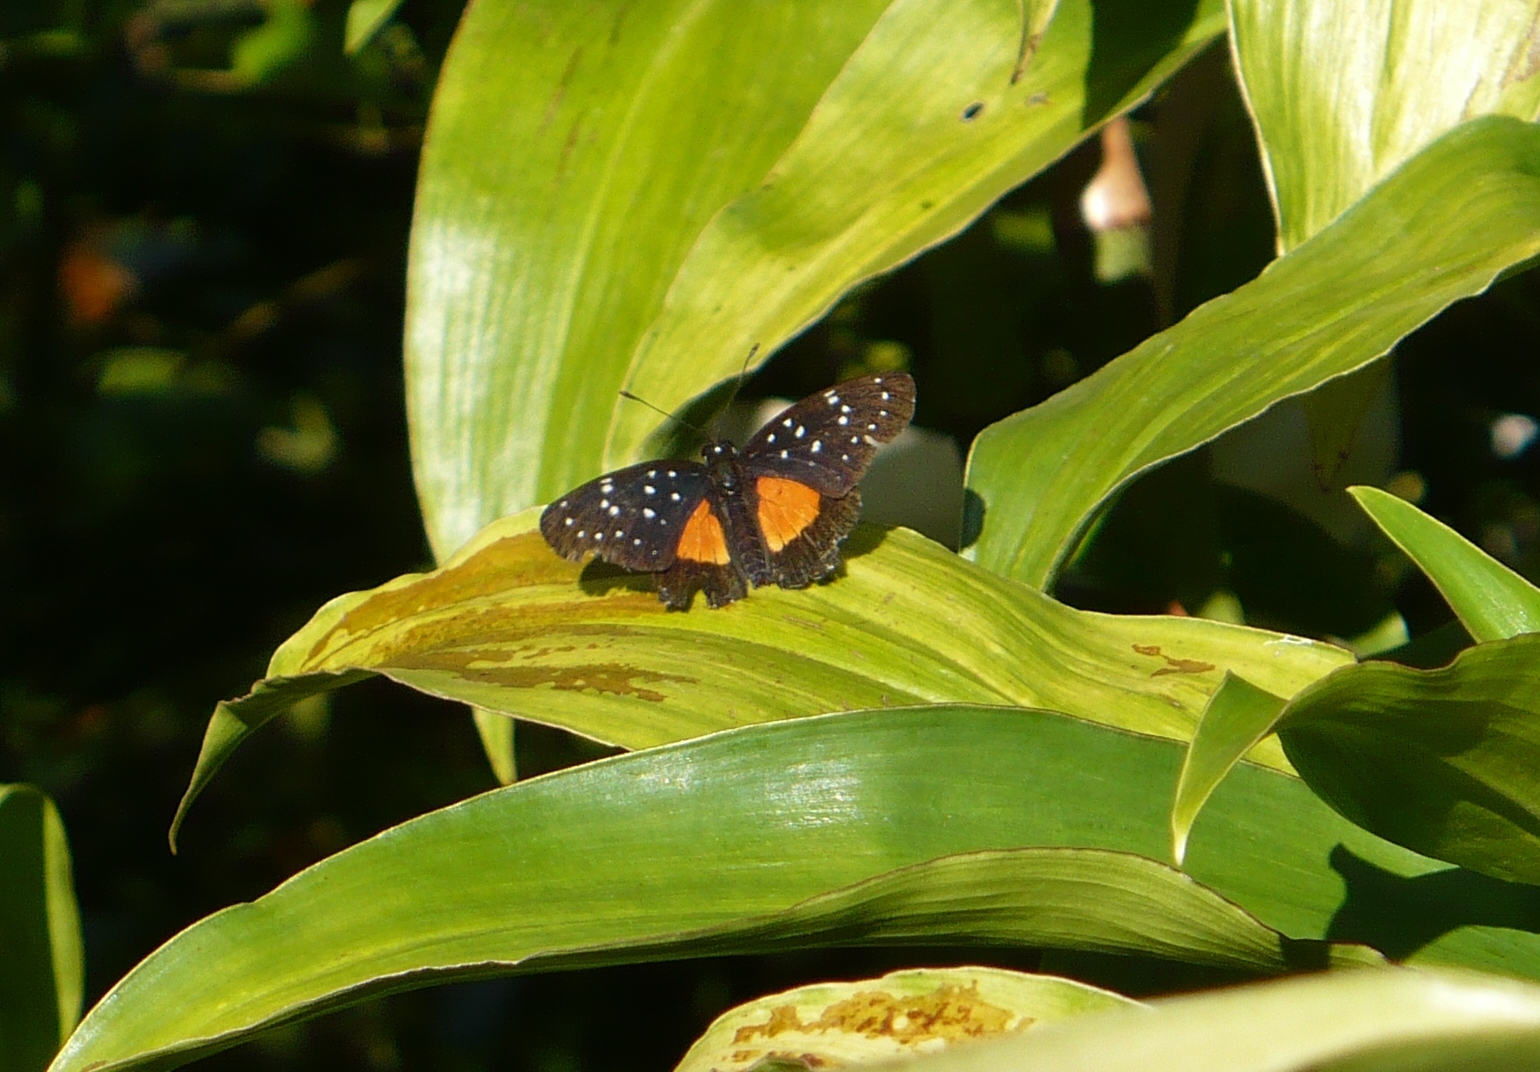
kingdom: Animalia
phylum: Arthropoda
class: Insecta
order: Lepidoptera
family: Nymphalidae
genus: Chlosyne
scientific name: Chlosyne janais
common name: Crimson patch
